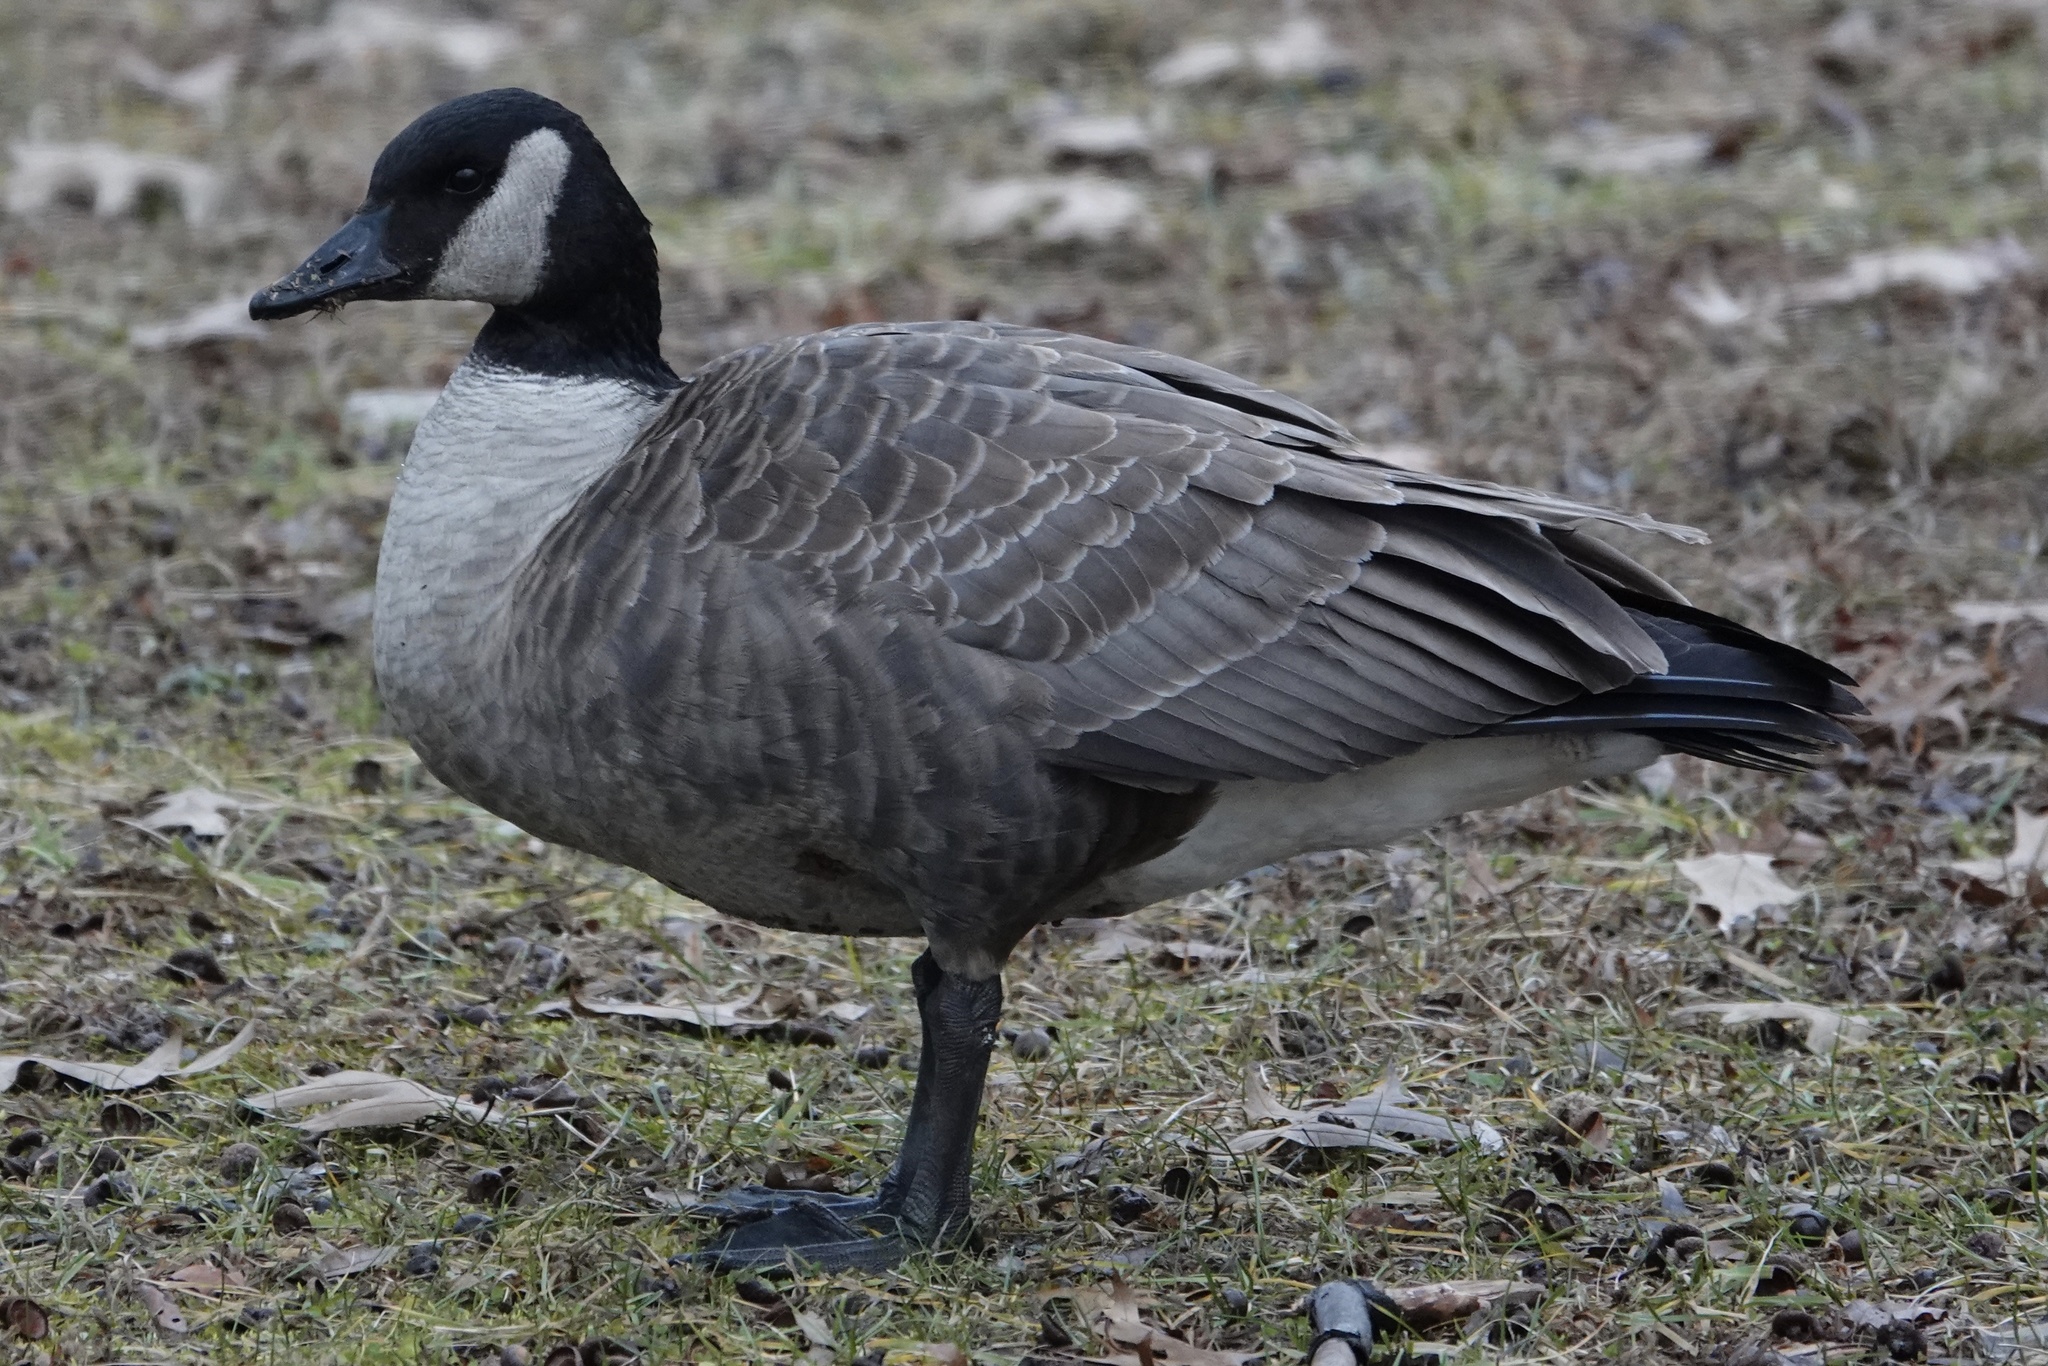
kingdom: Animalia
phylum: Chordata
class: Aves
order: Anseriformes
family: Anatidae
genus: Branta
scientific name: Branta canadensis
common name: Canada goose
